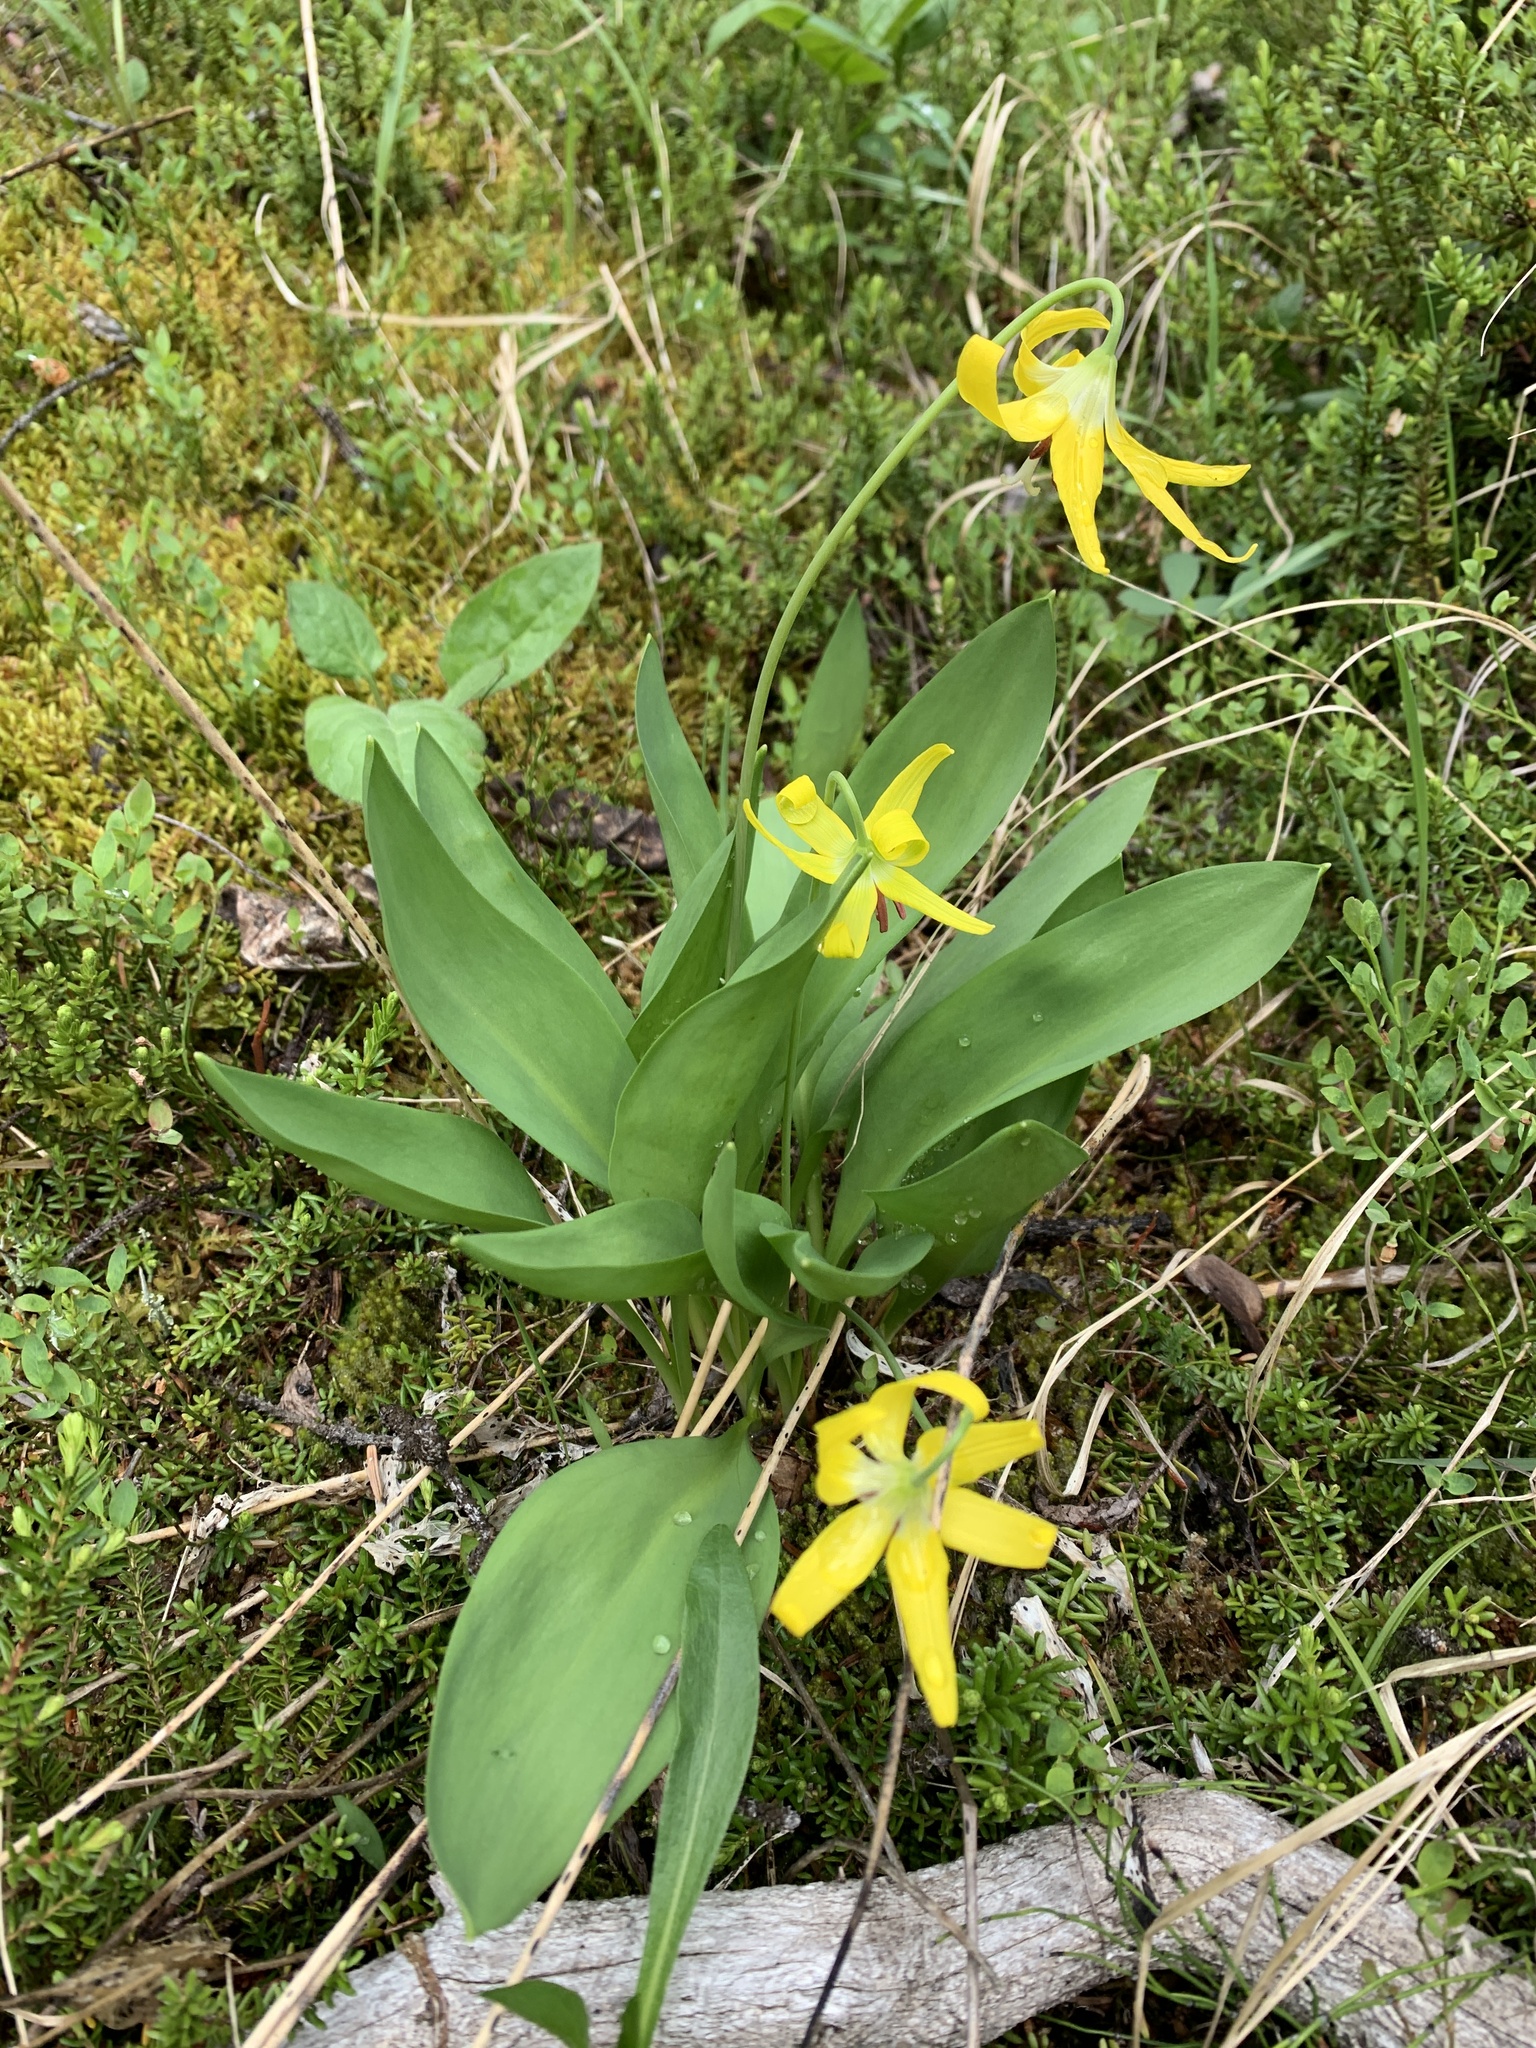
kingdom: Plantae
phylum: Tracheophyta
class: Liliopsida
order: Liliales
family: Liliaceae
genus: Erythronium
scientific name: Erythronium grandiflorum
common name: Avalanche-lily
